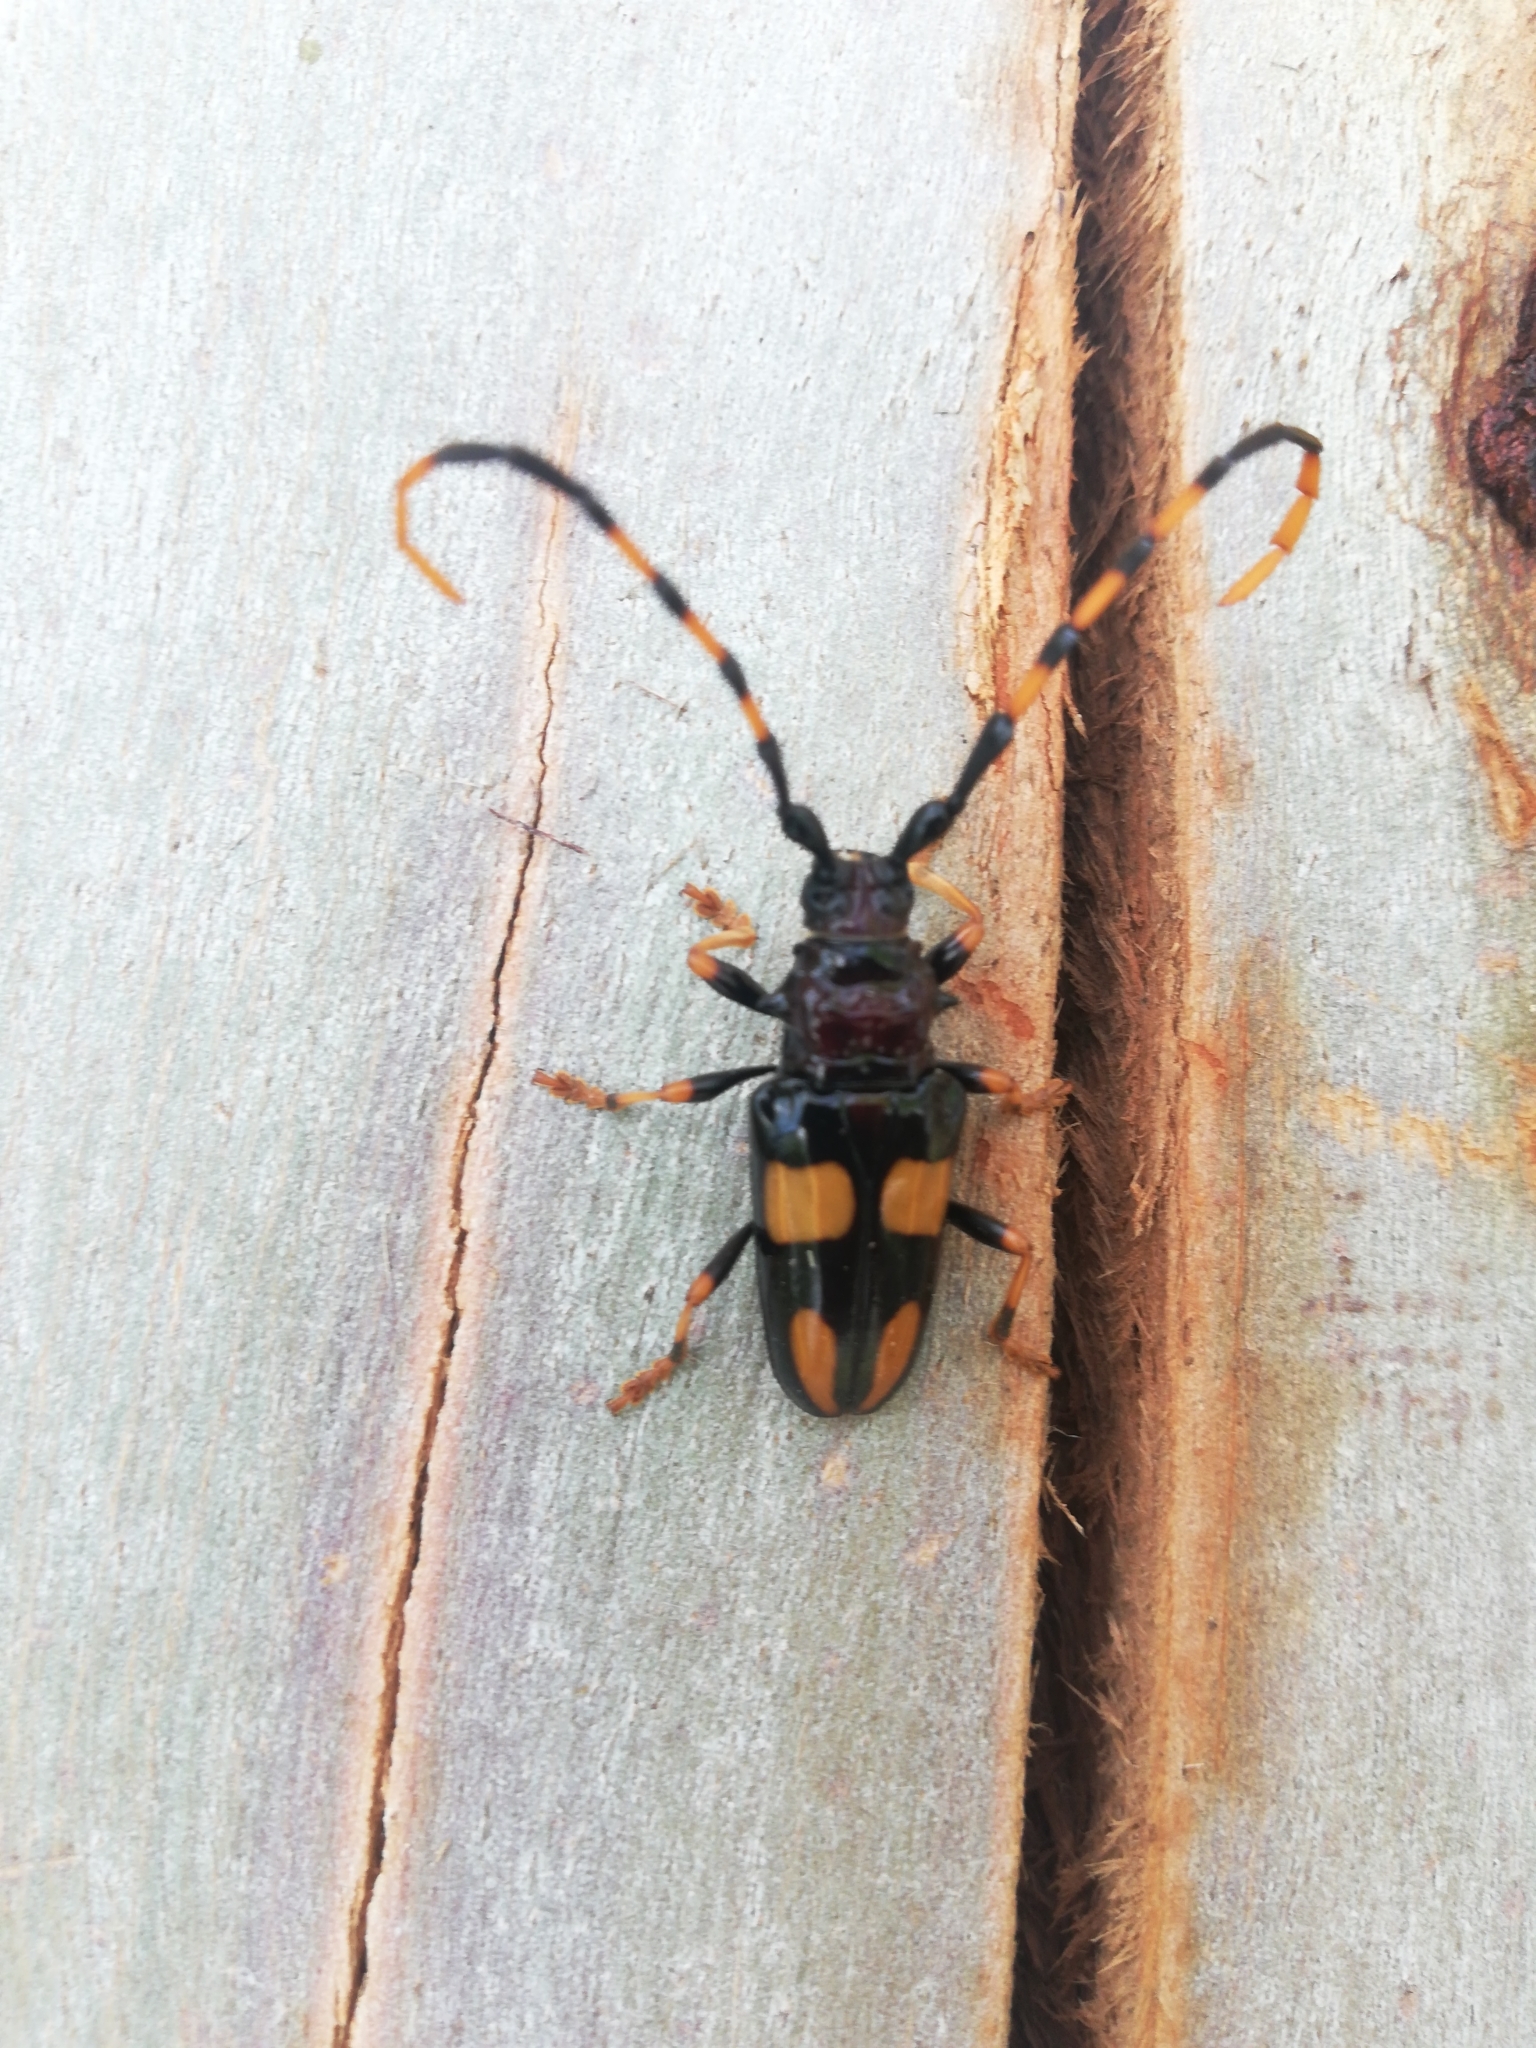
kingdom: Animalia
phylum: Arthropoda
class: Insecta
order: Coleoptera
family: Cerambycidae
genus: Trachyderes
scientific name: Trachyderes mandibularis
